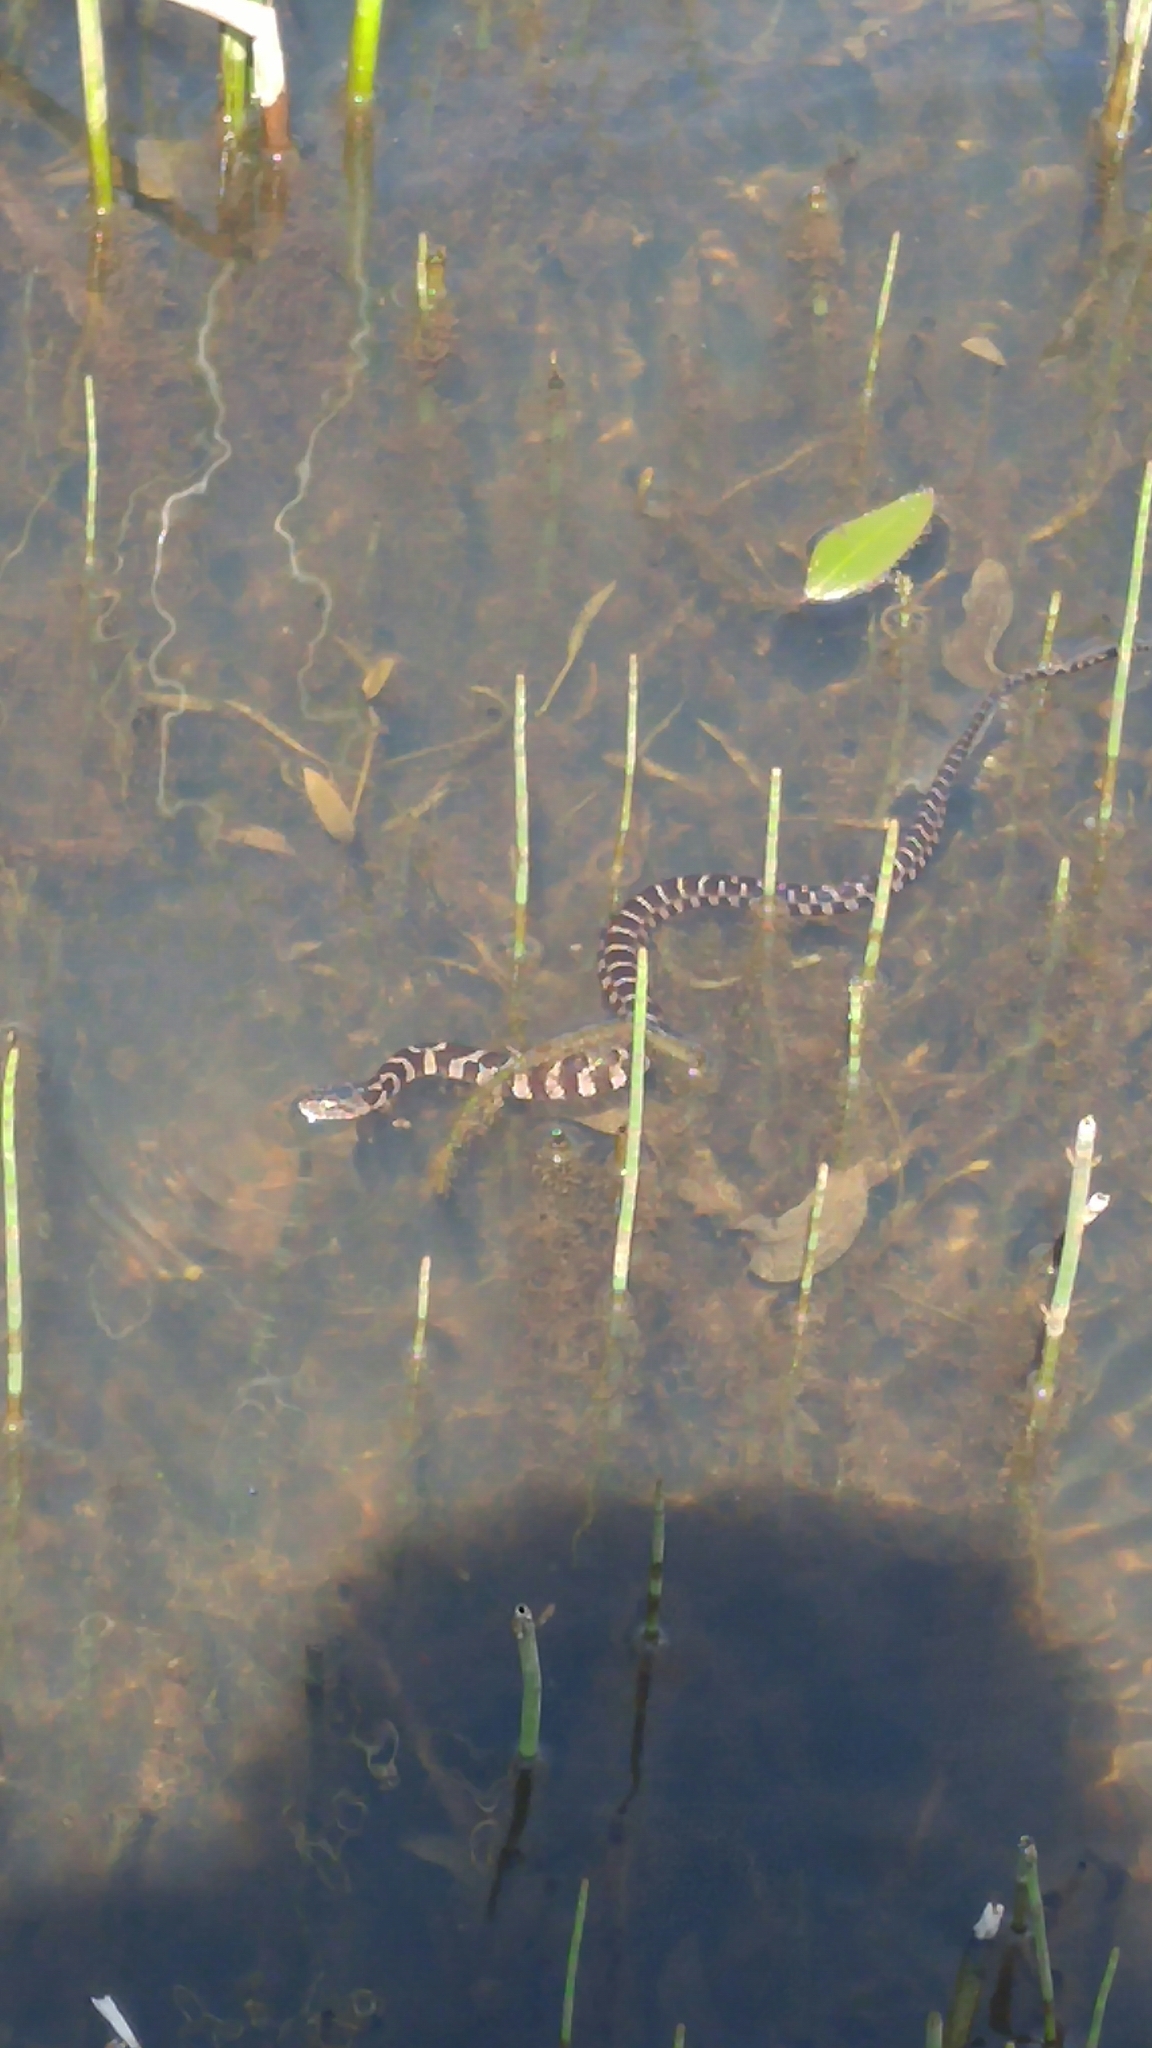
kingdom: Animalia
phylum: Chordata
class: Squamata
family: Colubridae
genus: Nerodia
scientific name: Nerodia sipedon
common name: Northern water snake
